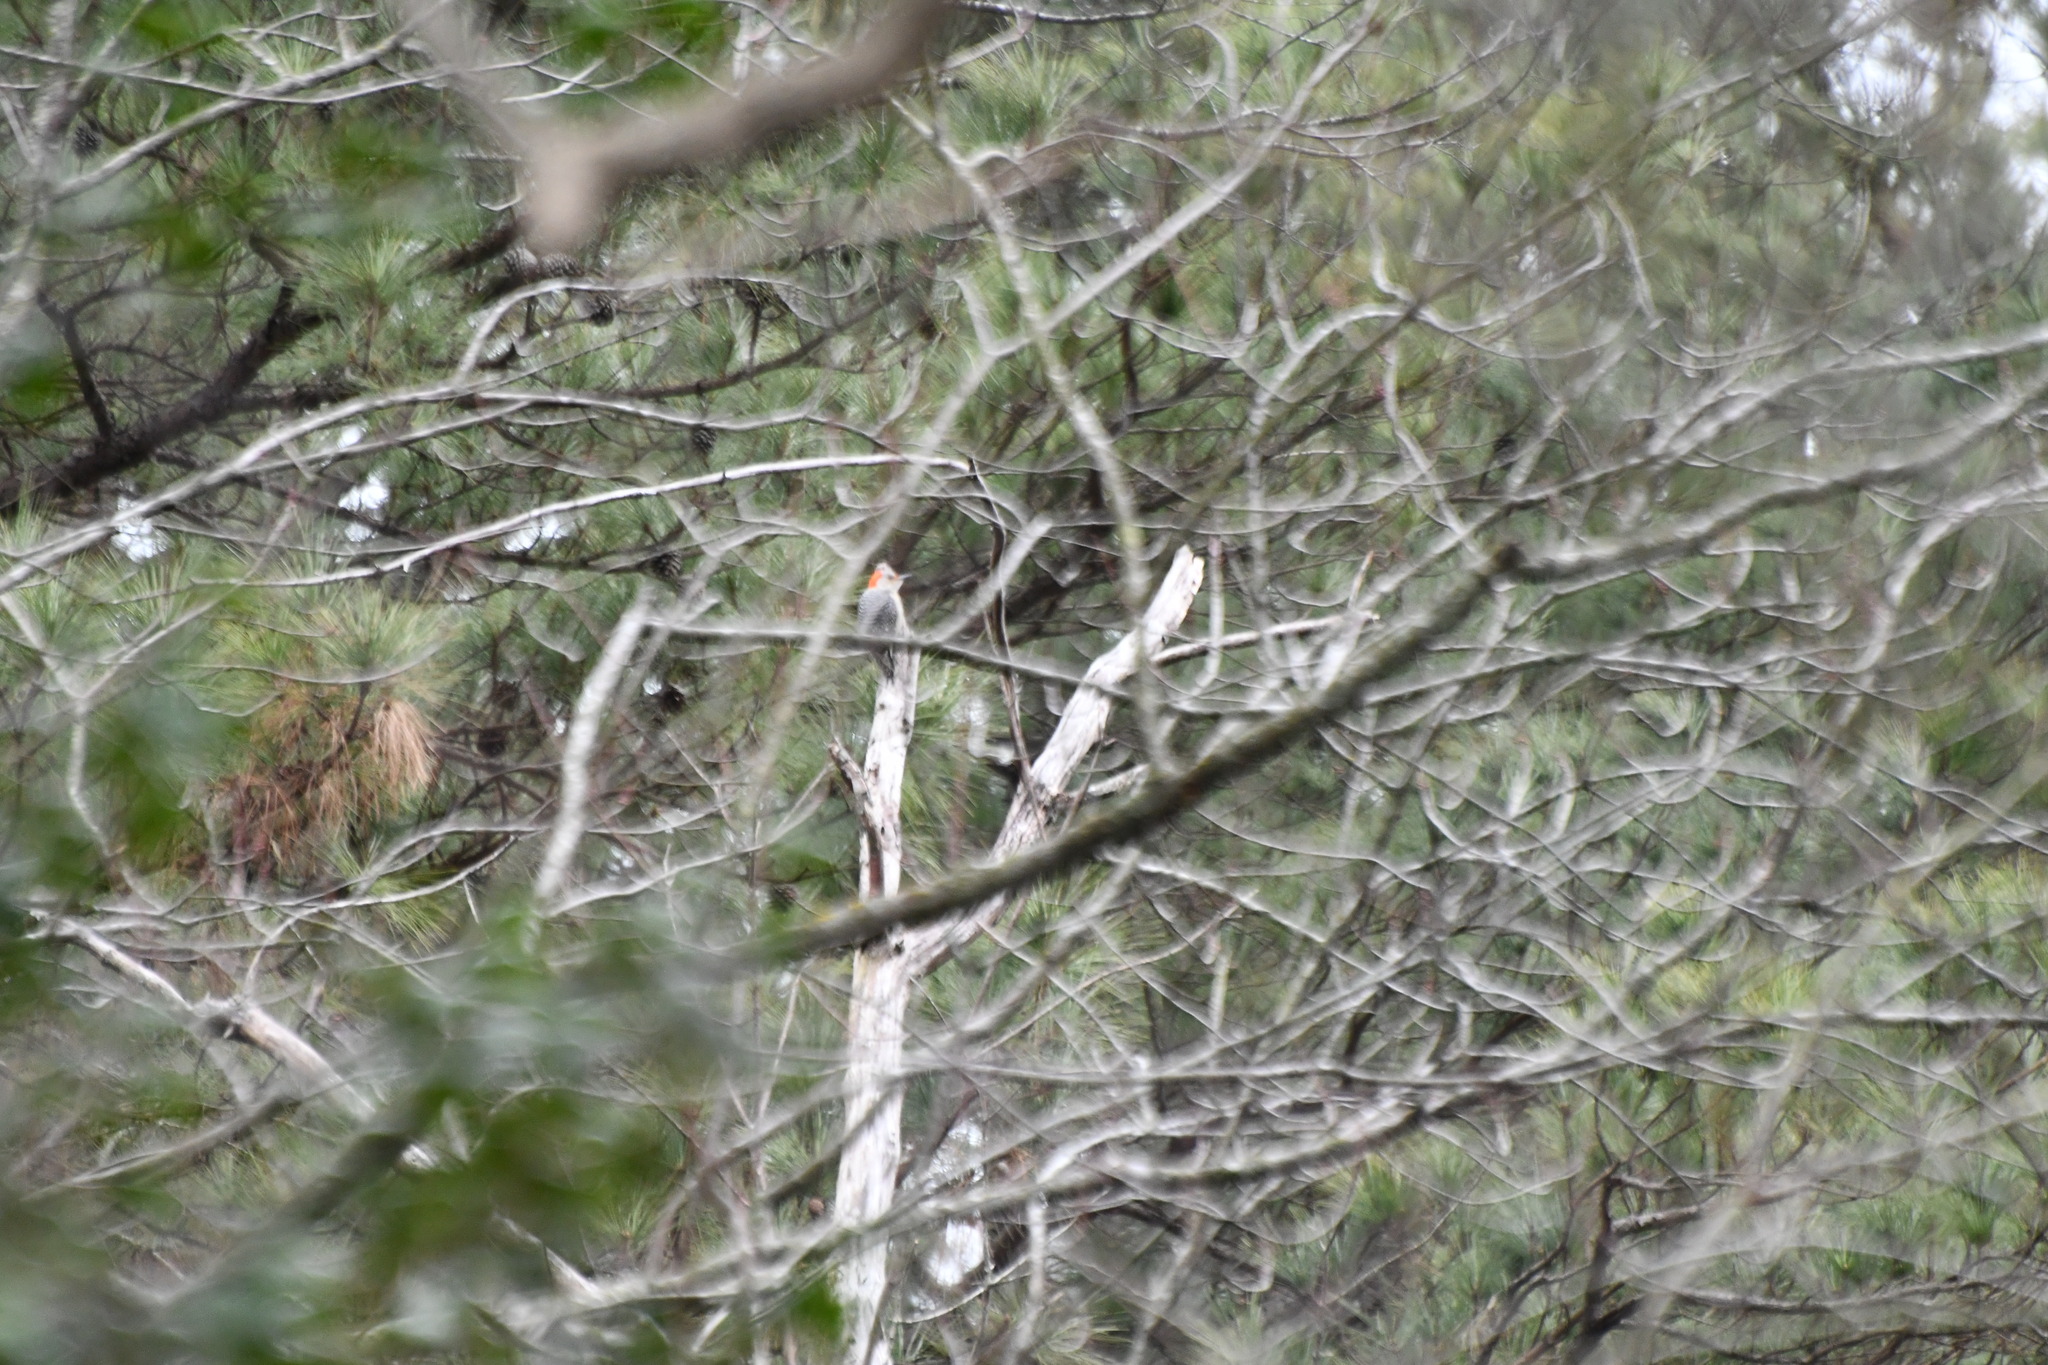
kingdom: Animalia
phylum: Chordata
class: Aves
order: Piciformes
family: Picidae
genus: Melanerpes
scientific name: Melanerpes carolinus
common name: Red-bellied woodpecker
